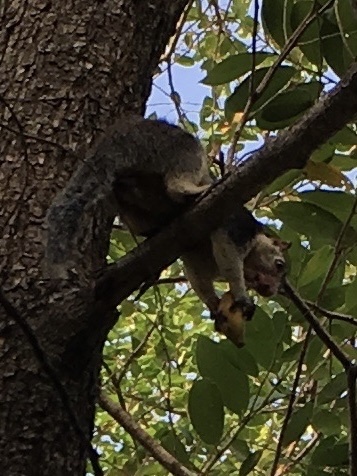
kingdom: Animalia
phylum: Chordata
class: Mammalia
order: Rodentia
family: Sciuridae
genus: Ratufa
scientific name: Ratufa macroura
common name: Sri lankan giant squirrel
